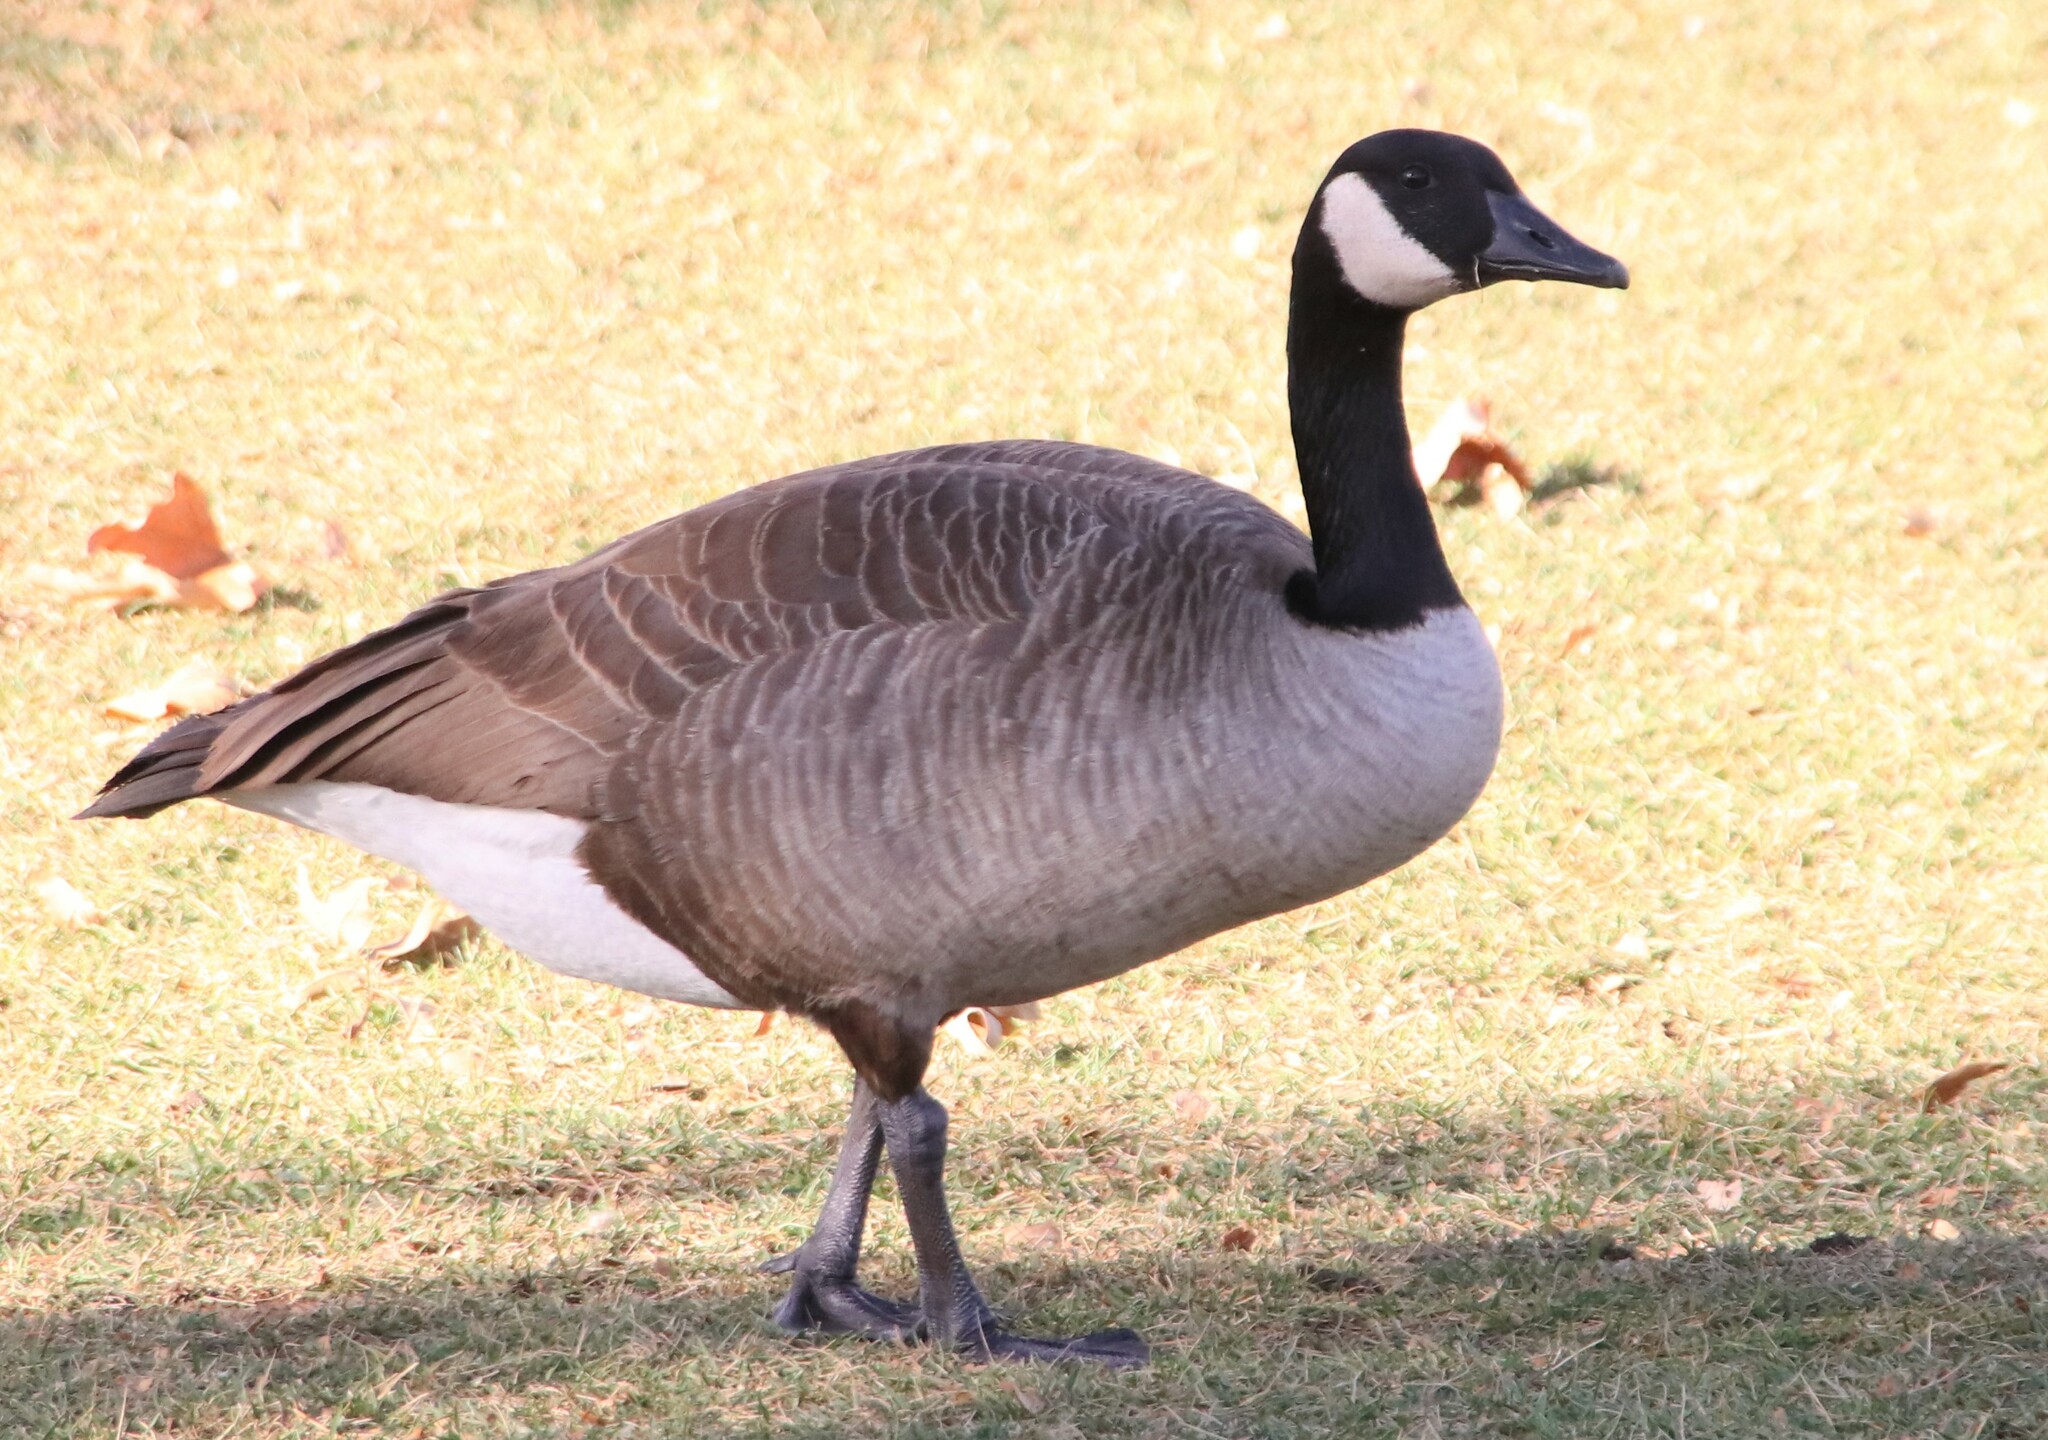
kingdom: Animalia
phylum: Chordata
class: Aves
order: Anseriformes
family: Anatidae
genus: Branta
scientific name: Branta canadensis
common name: Canada goose
